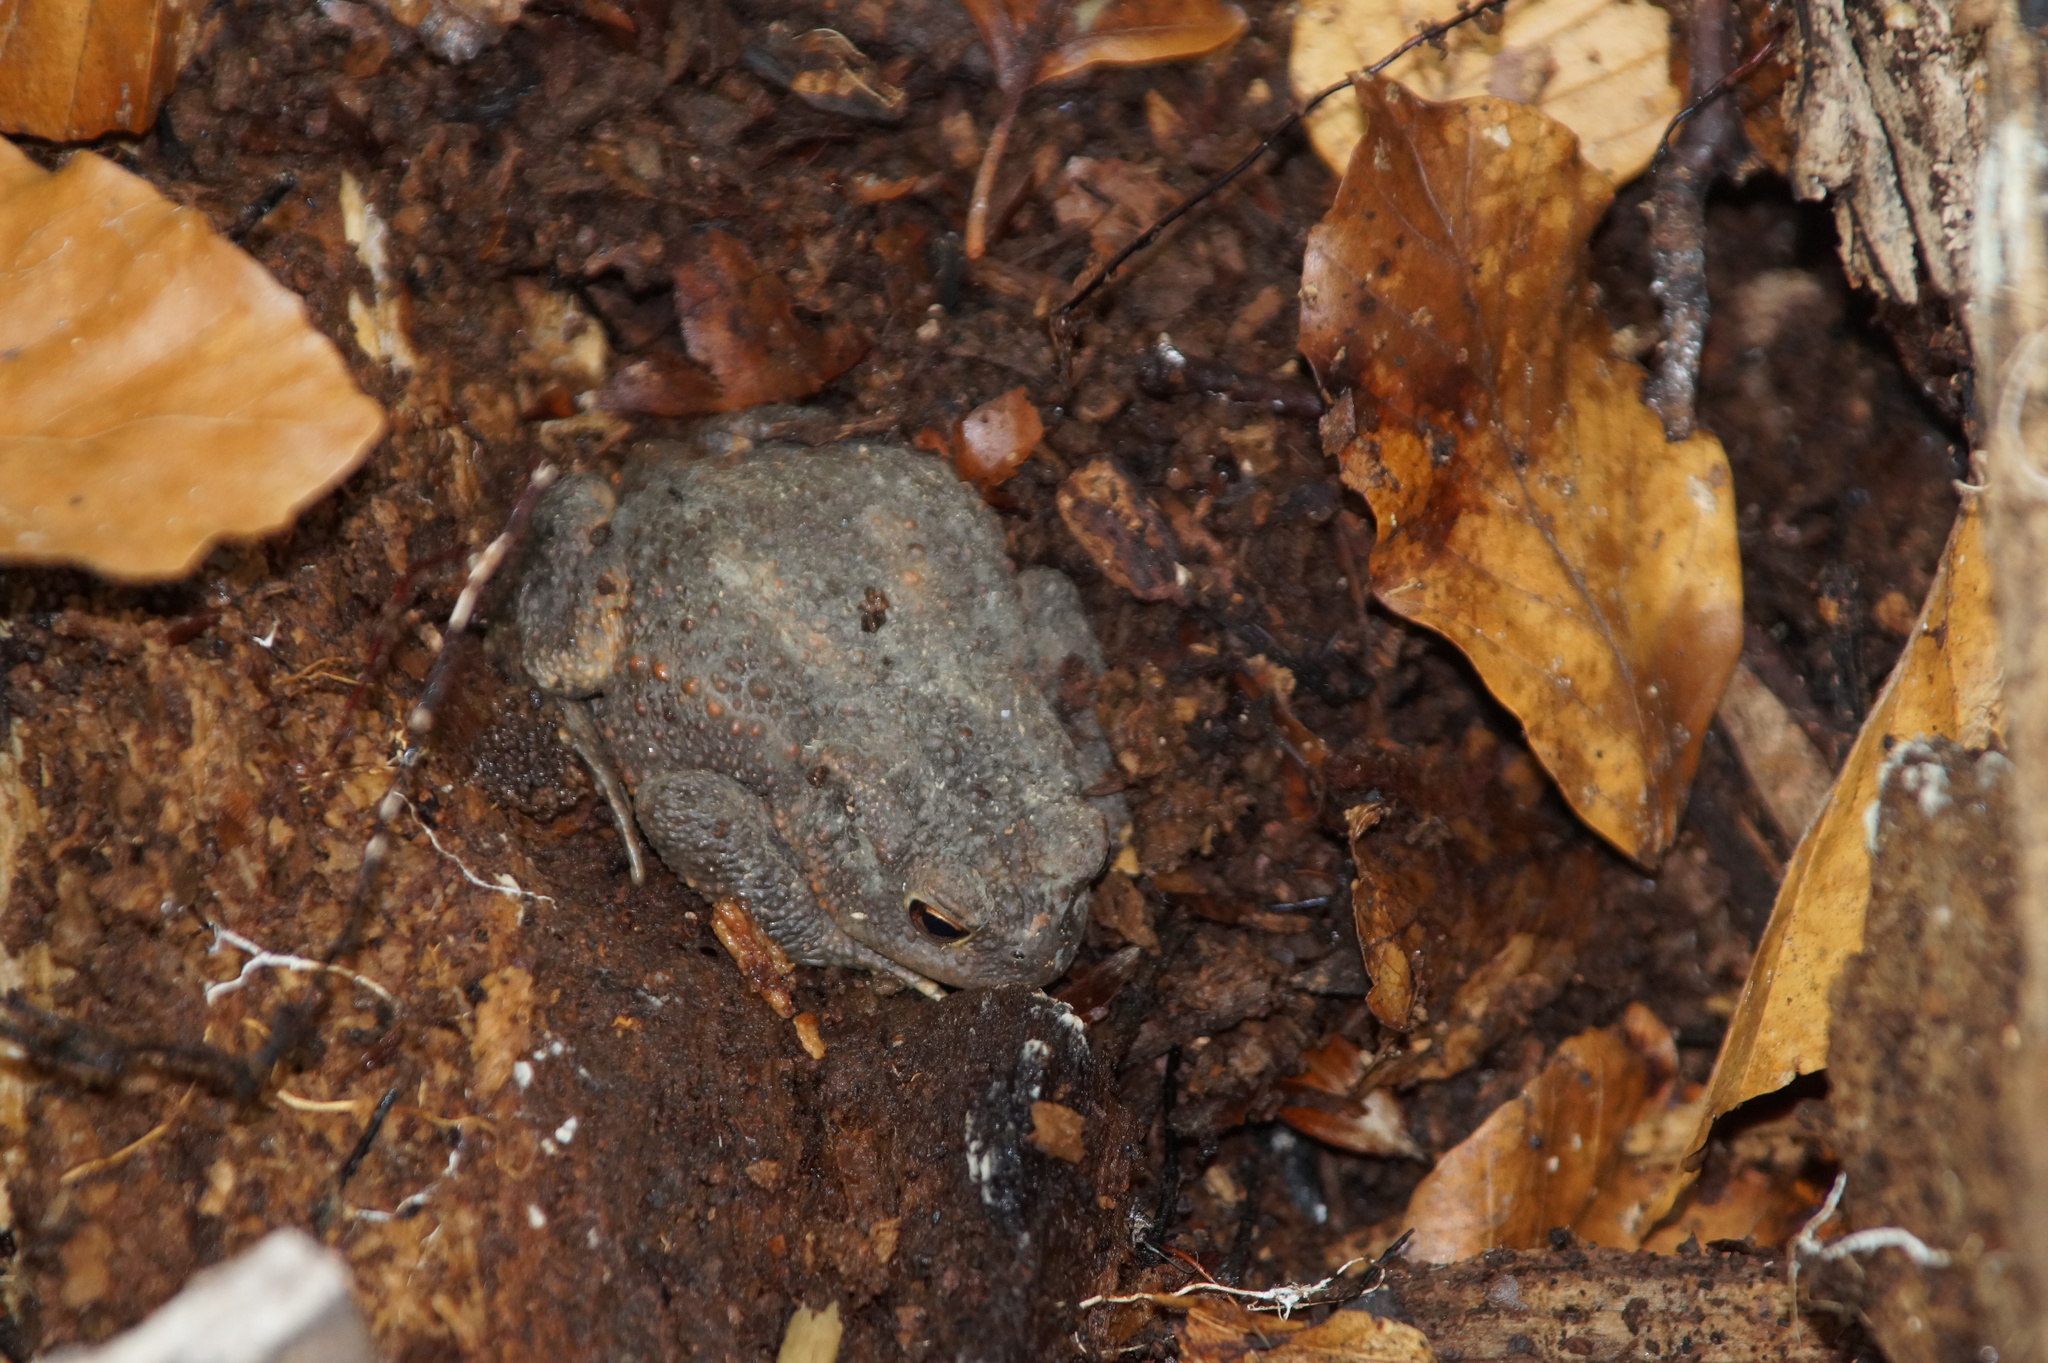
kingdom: Animalia
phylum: Chordata
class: Amphibia
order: Anura
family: Bufonidae
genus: Bufo
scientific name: Bufo bufo
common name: Common toad
